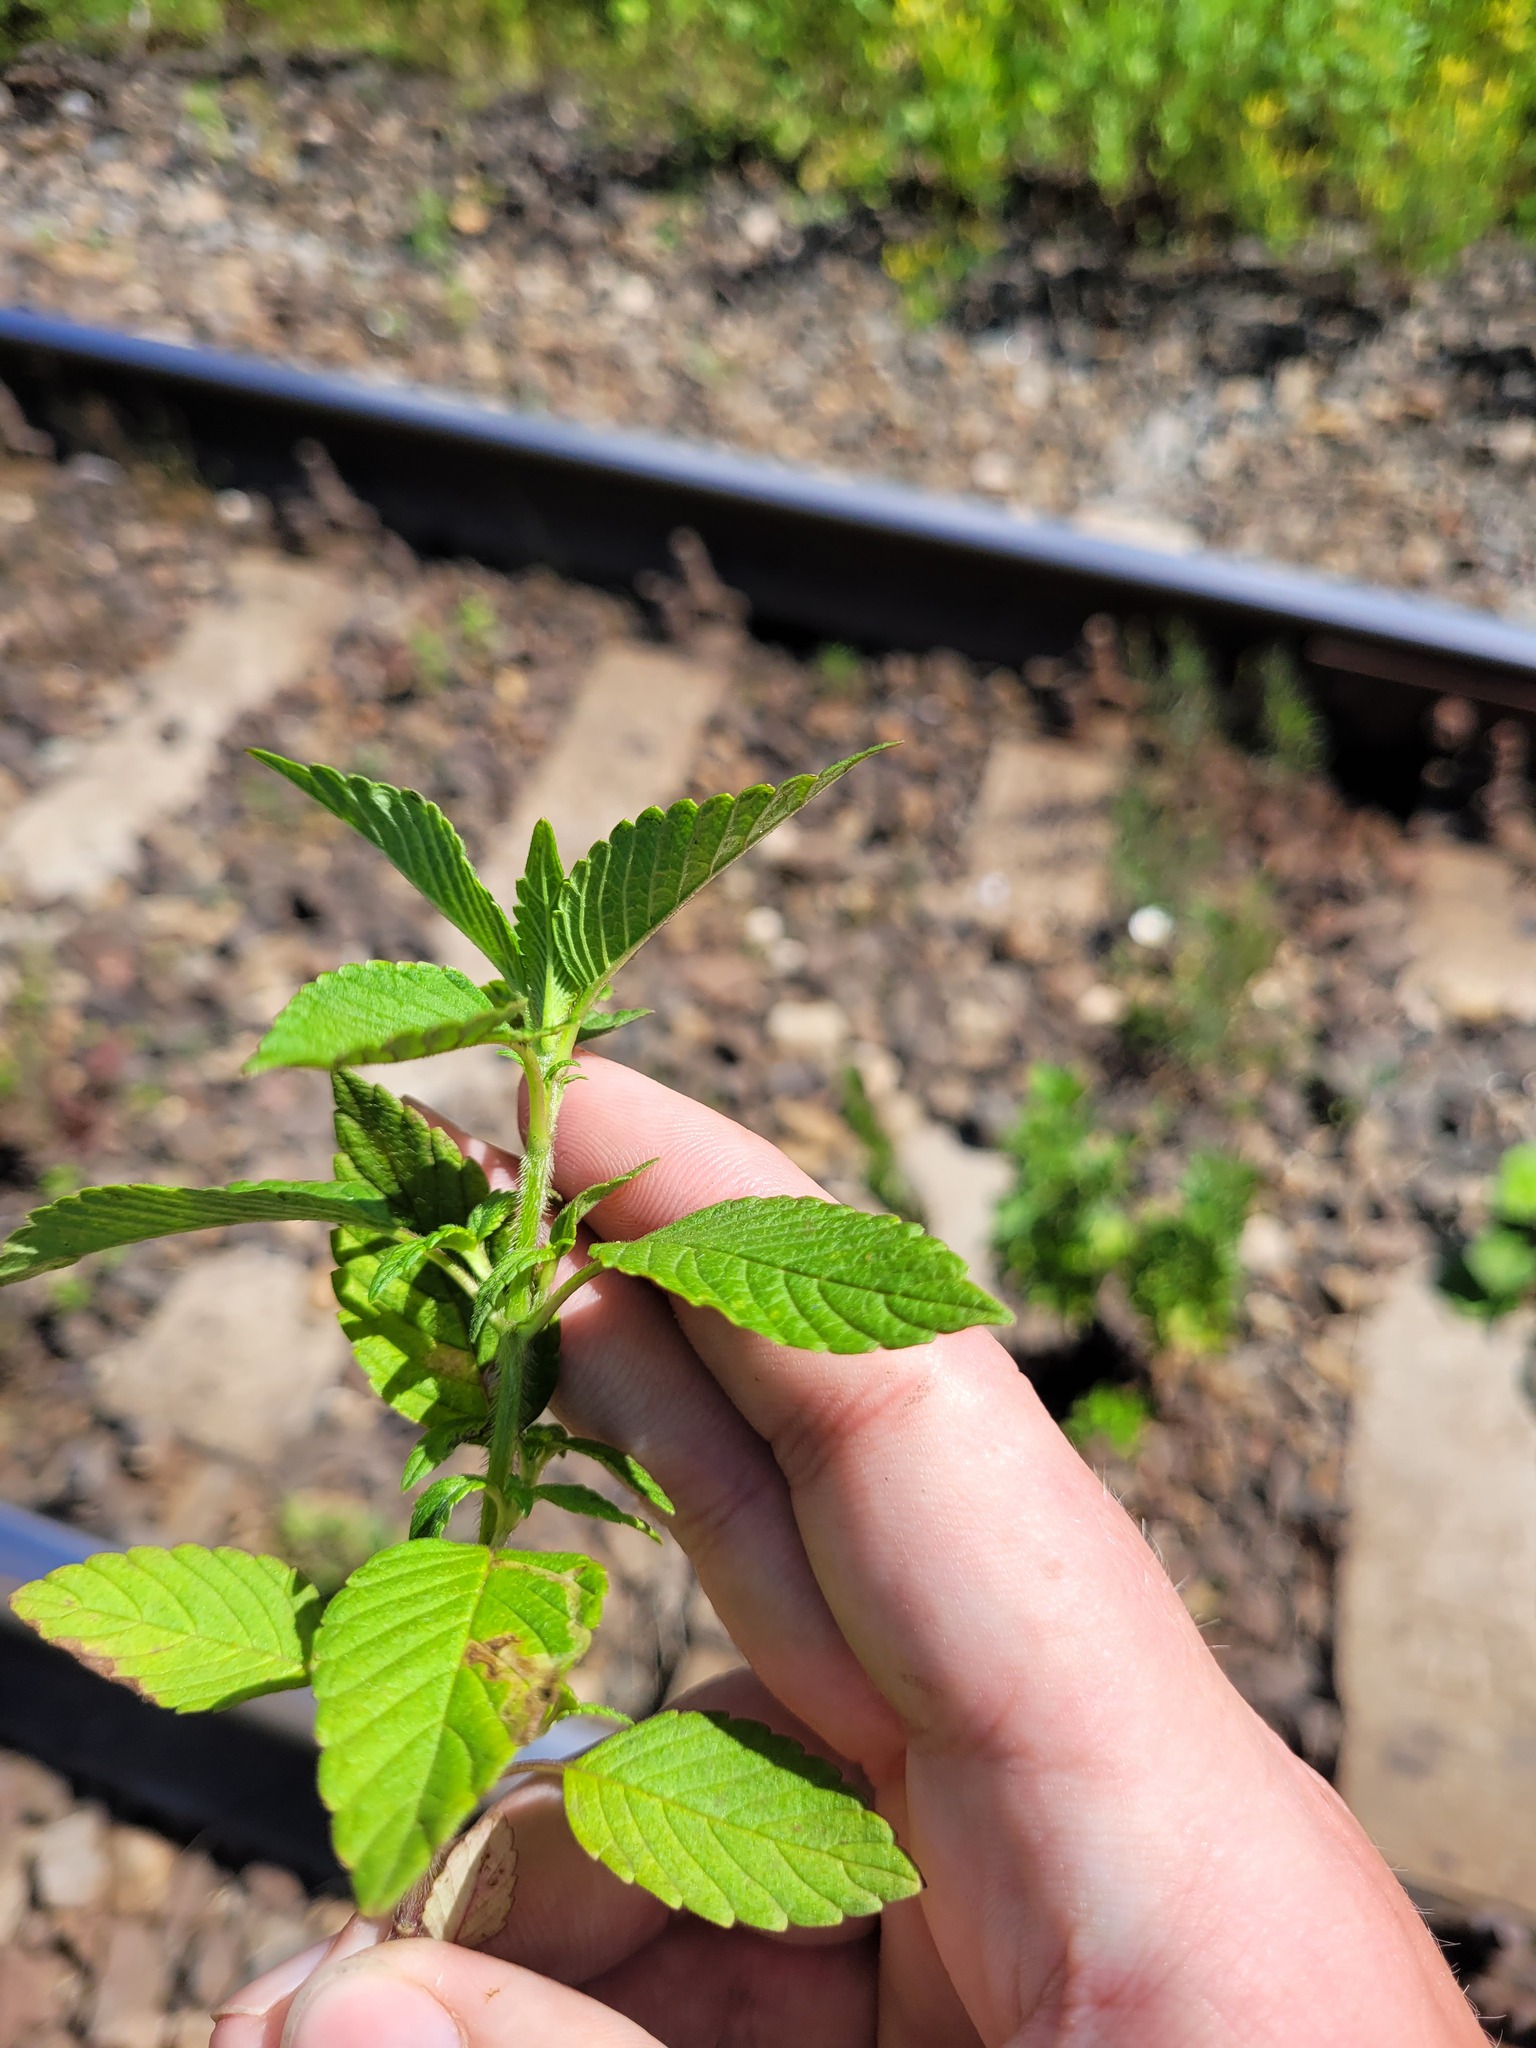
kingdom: Plantae
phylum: Tracheophyta
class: Magnoliopsida
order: Lamiales
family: Lamiaceae
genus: Galeopsis
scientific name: Galeopsis
